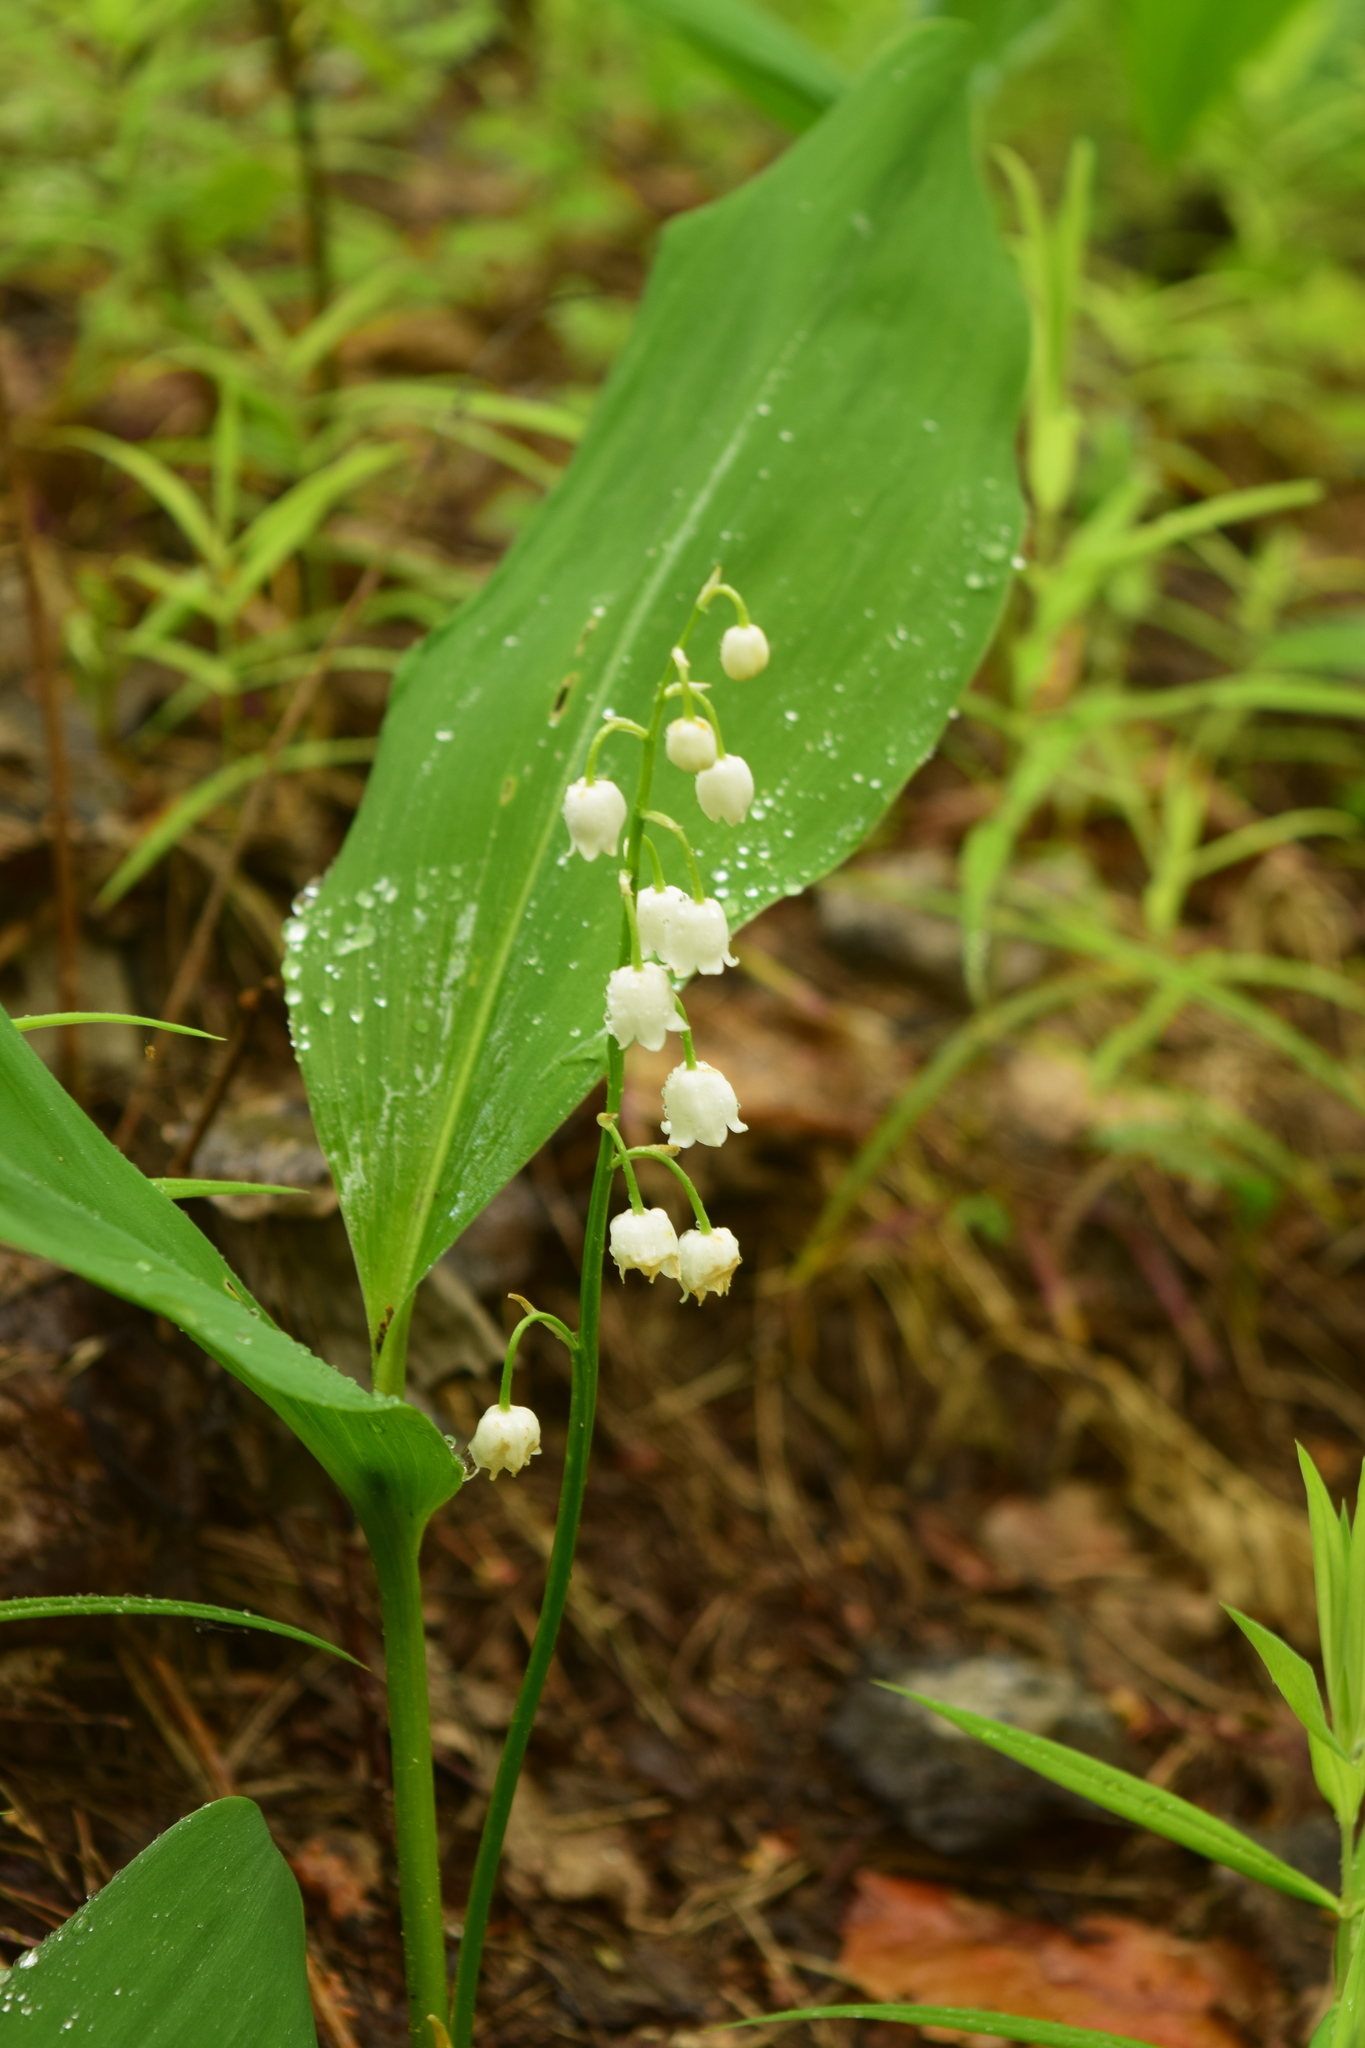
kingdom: Plantae
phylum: Tracheophyta
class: Liliopsida
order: Asparagales
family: Asparagaceae
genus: Convallaria
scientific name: Convallaria majalis
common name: Lily-of-the-valley
